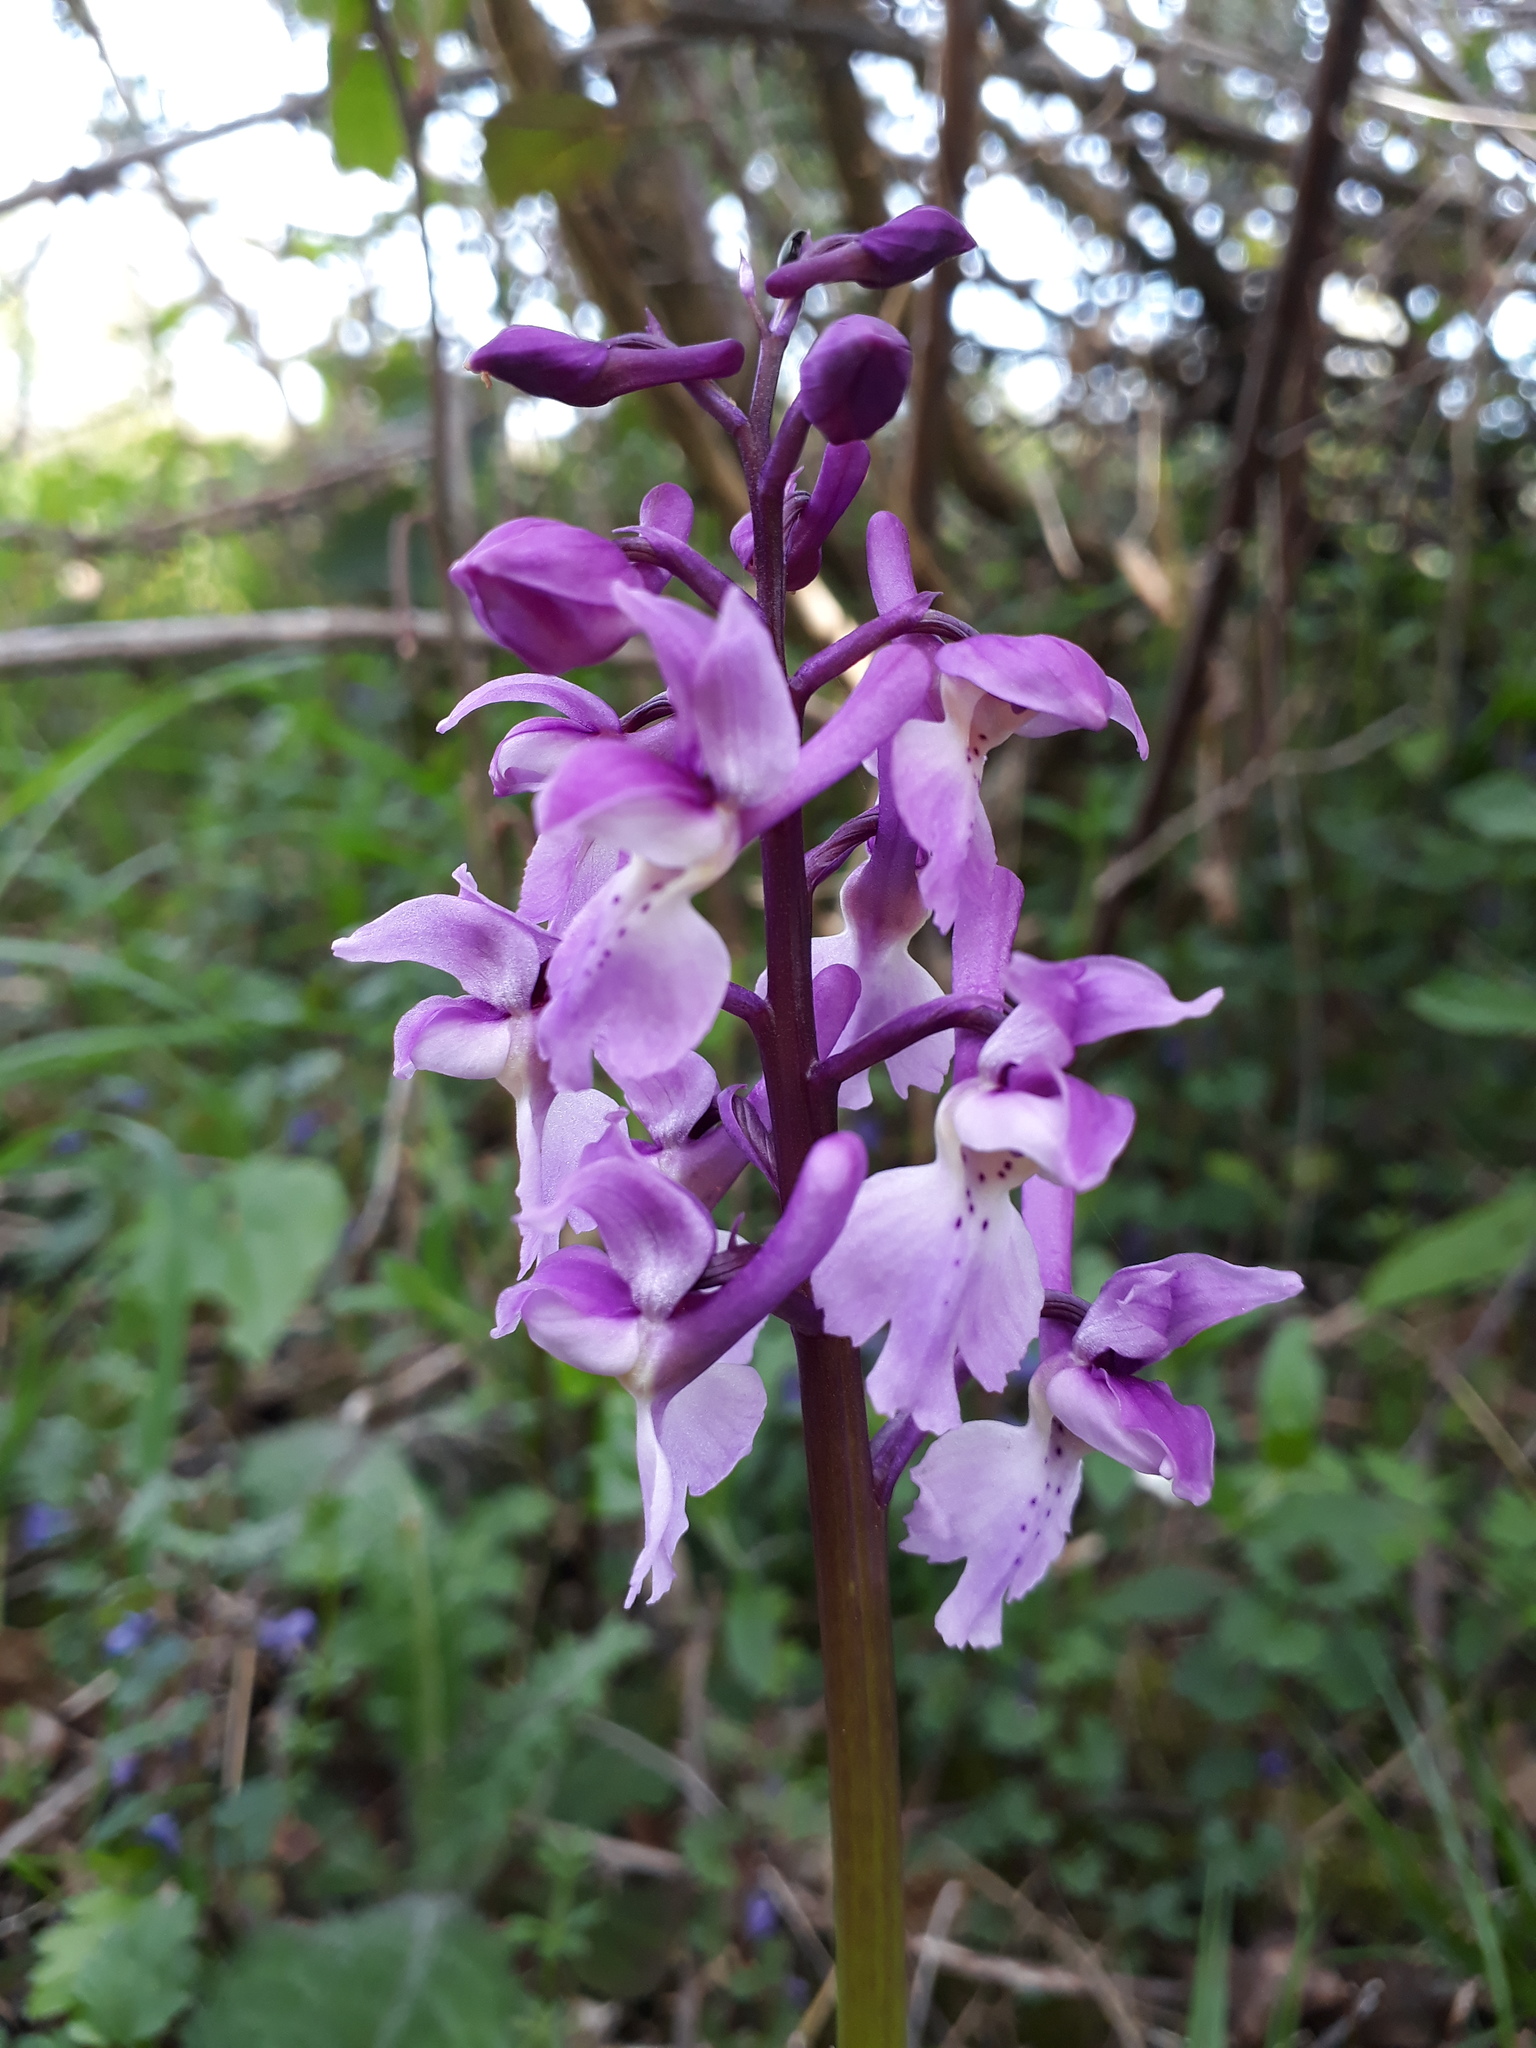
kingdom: Plantae
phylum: Tracheophyta
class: Liliopsida
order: Asparagales
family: Orchidaceae
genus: Orchis
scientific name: Orchis mascula
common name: Early-purple orchid
